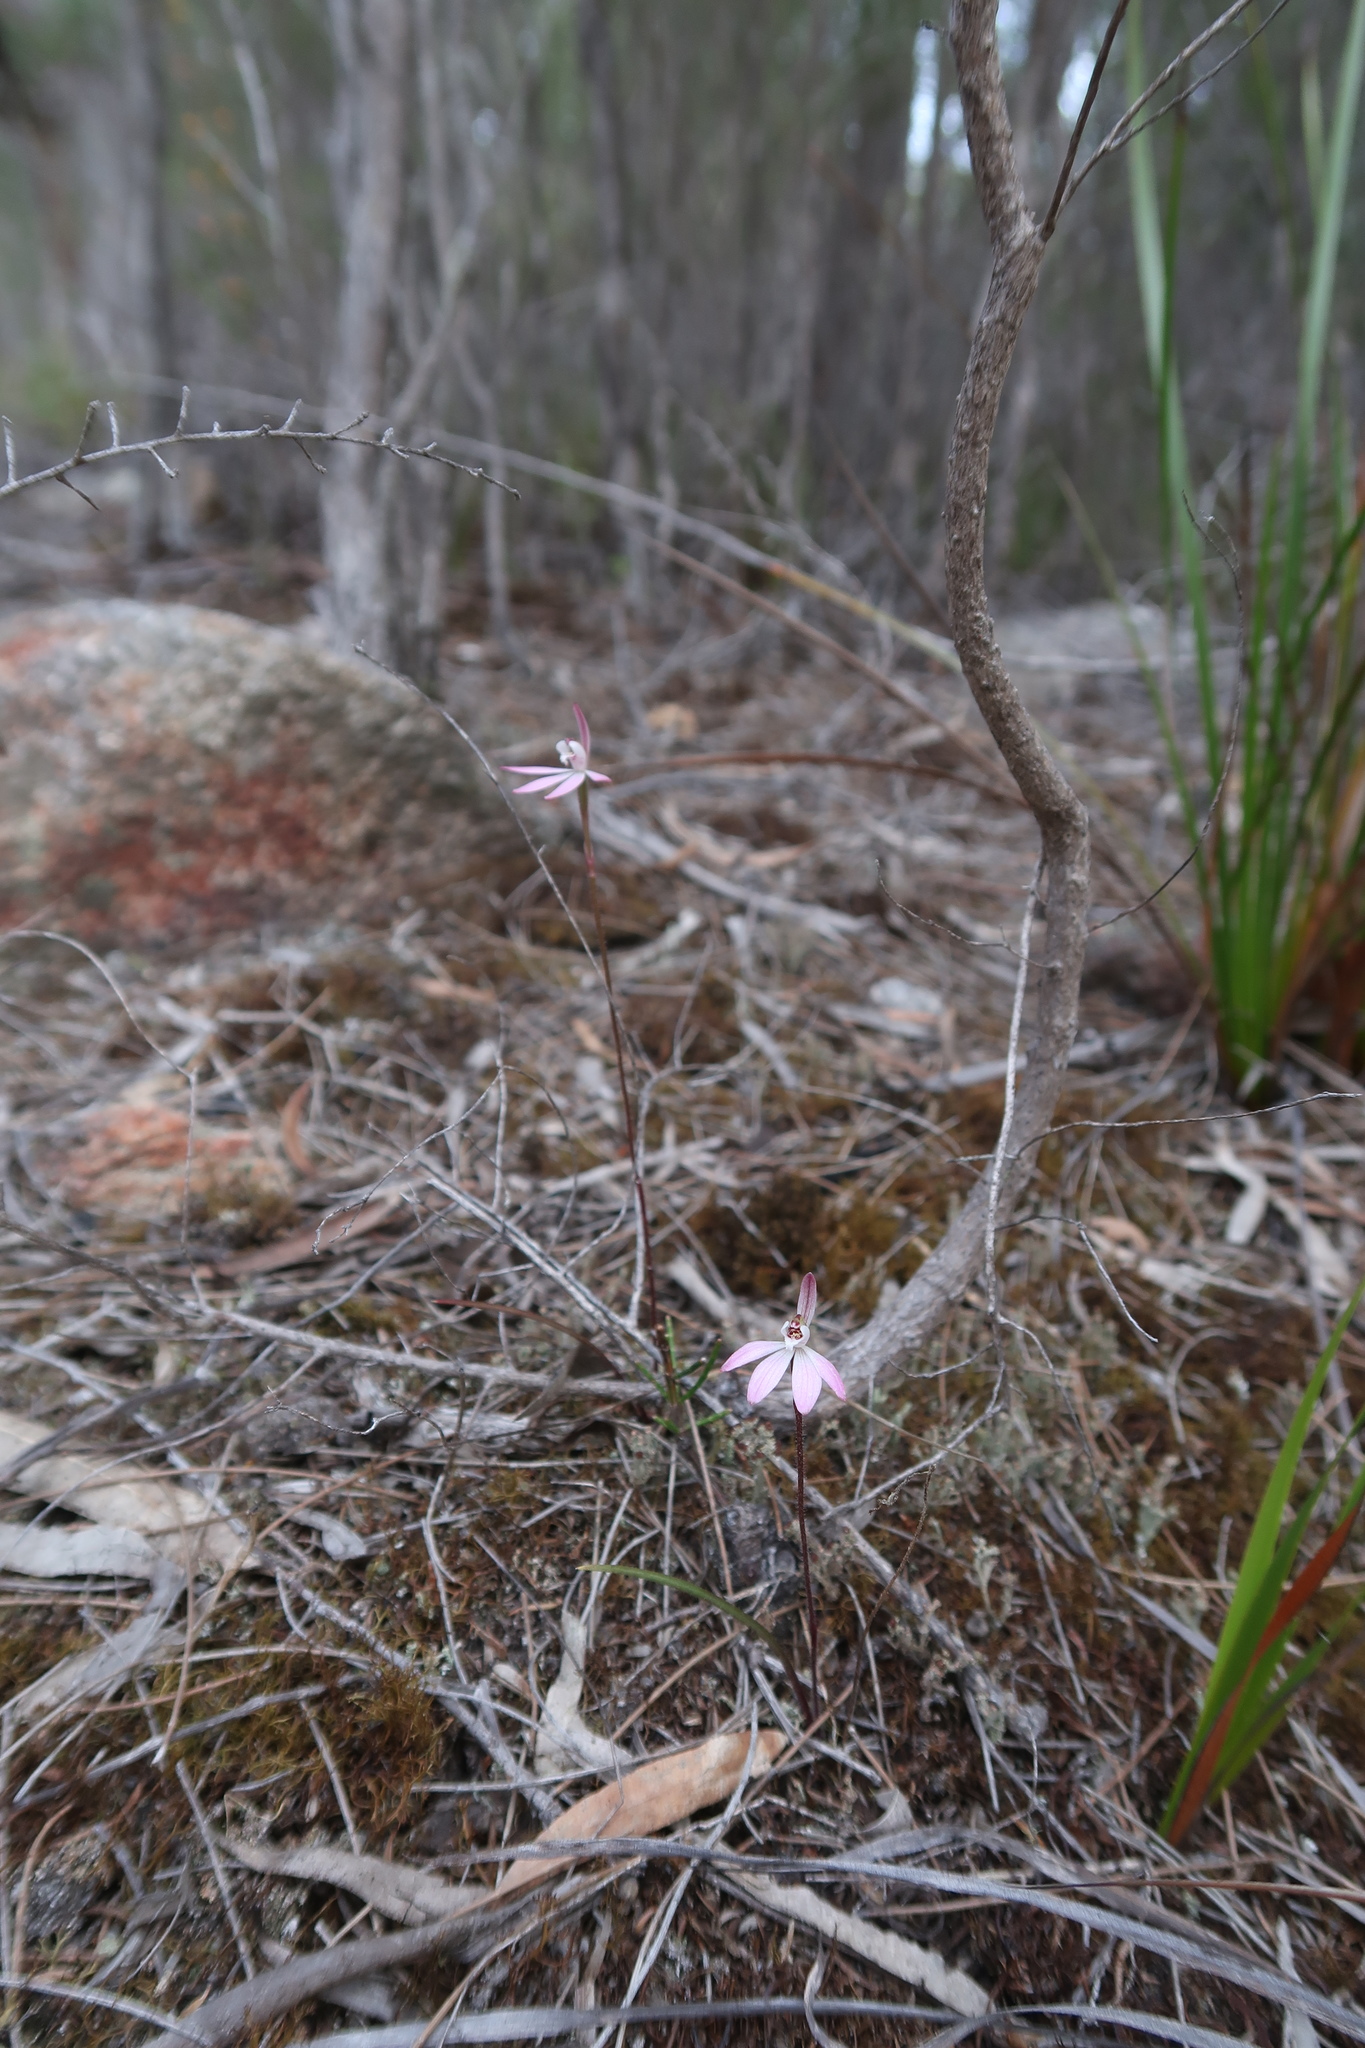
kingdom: Plantae
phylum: Tracheophyta
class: Liliopsida
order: Asparagales
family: Orchidaceae
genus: Caladenia
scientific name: Caladenia fuscata
